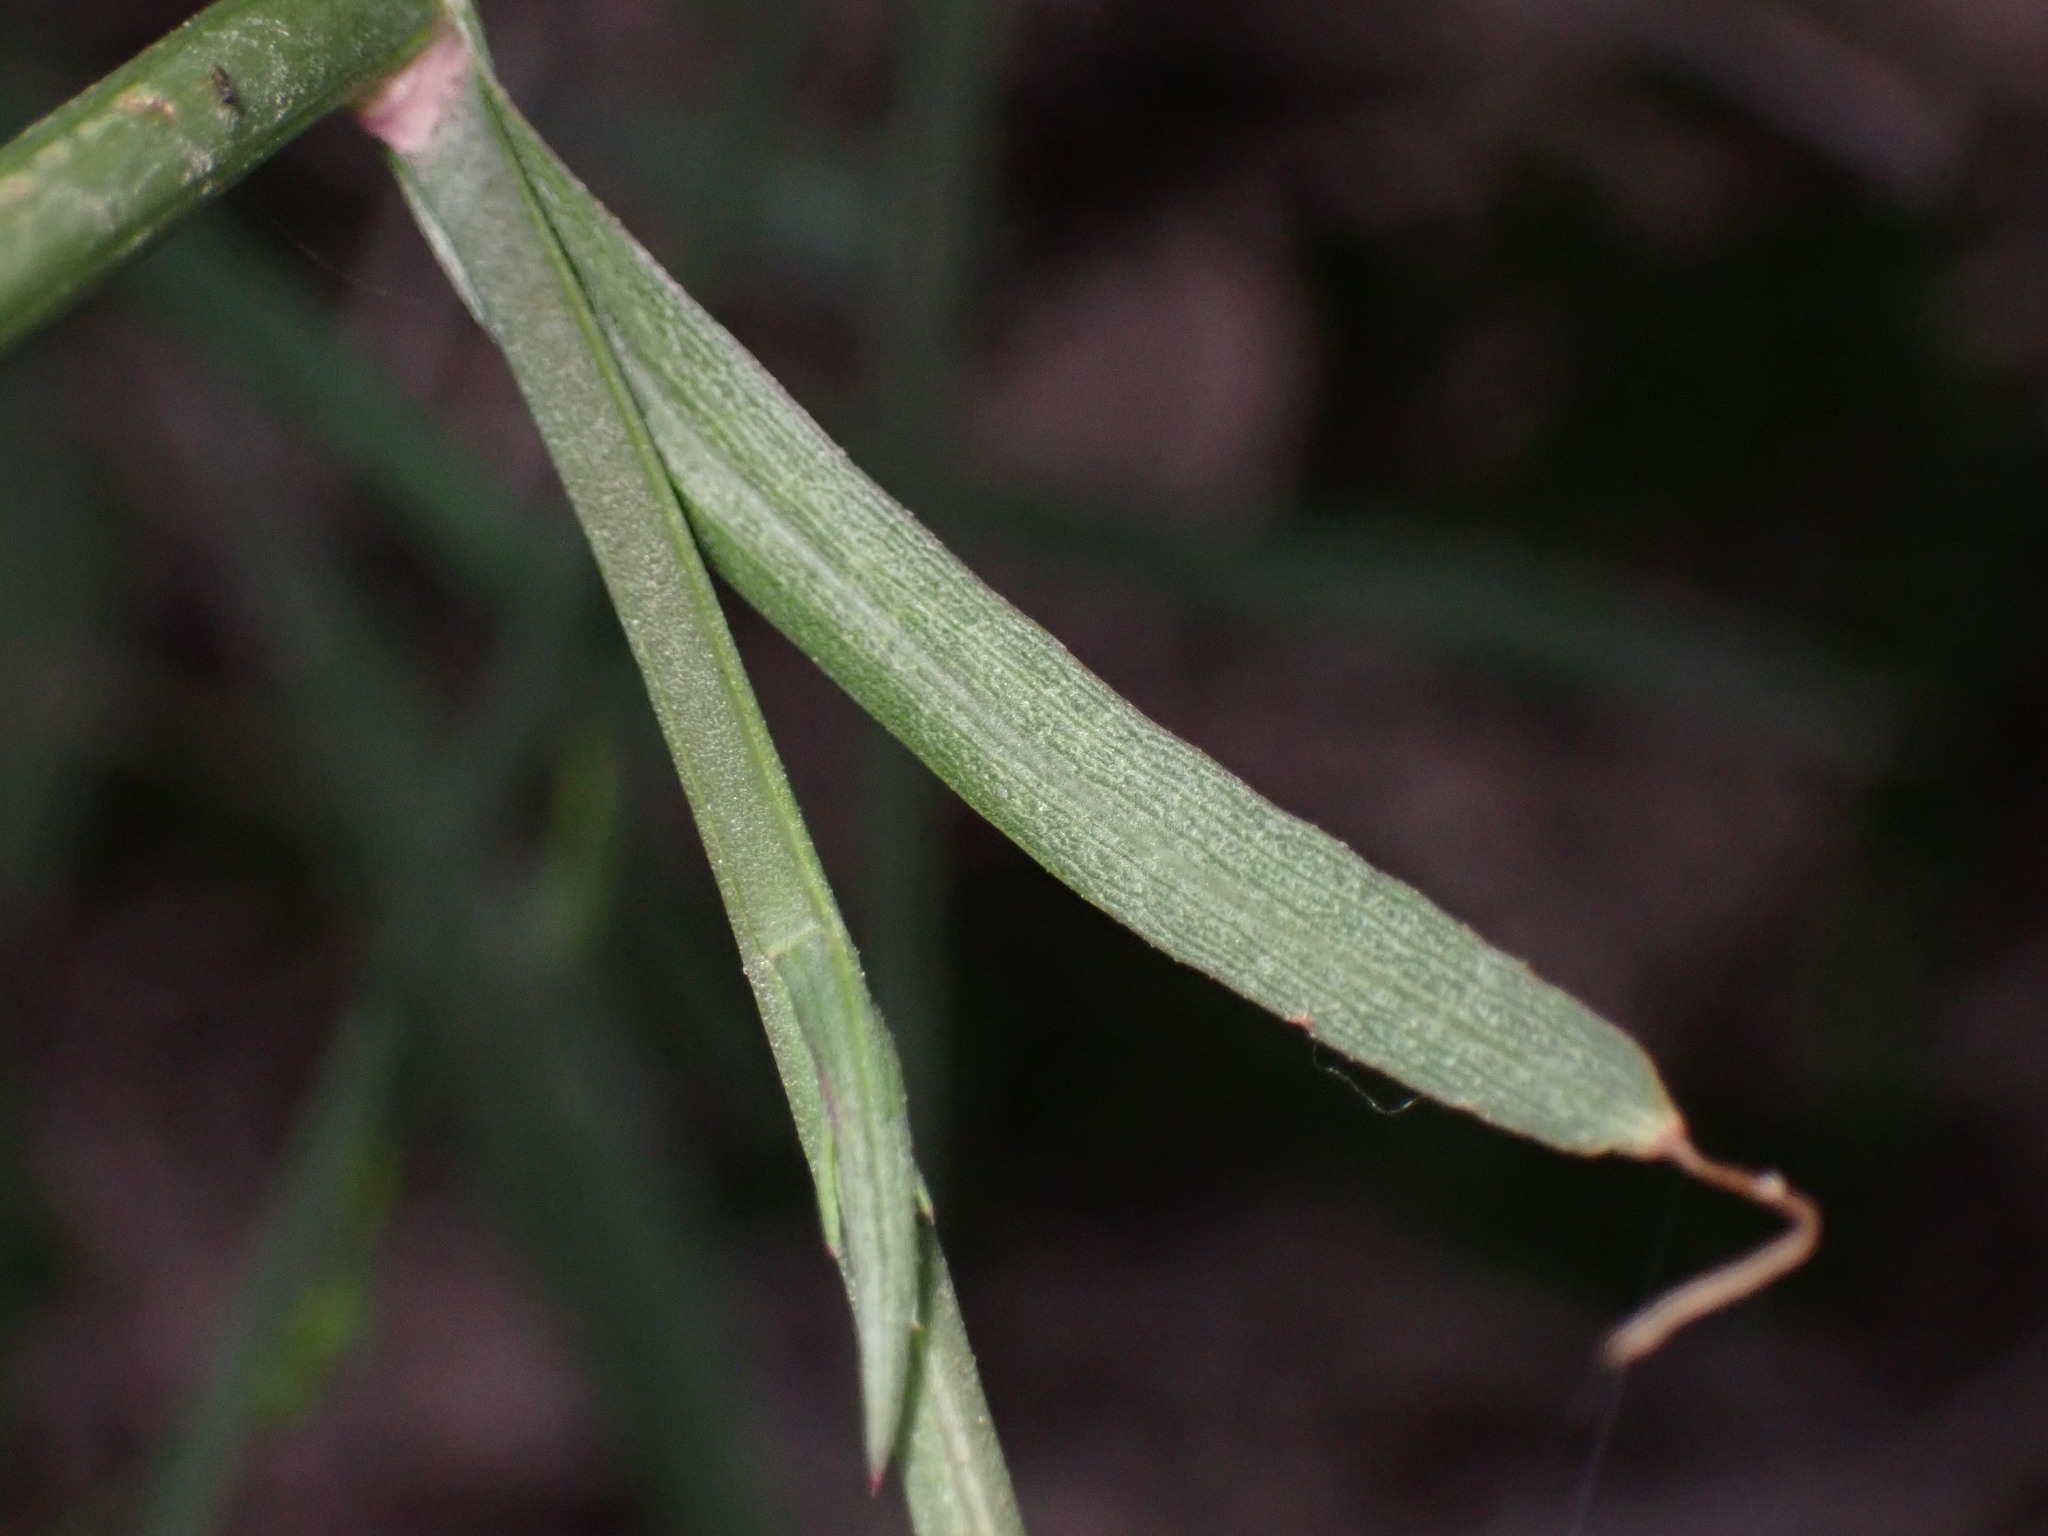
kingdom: Plantae
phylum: Tracheophyta
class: Magnoliopsida
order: Asterales
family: Asteraceae
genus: Symphyotrichum
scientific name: Symphyotrichum subulatum
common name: Annual saltmarsh aster
